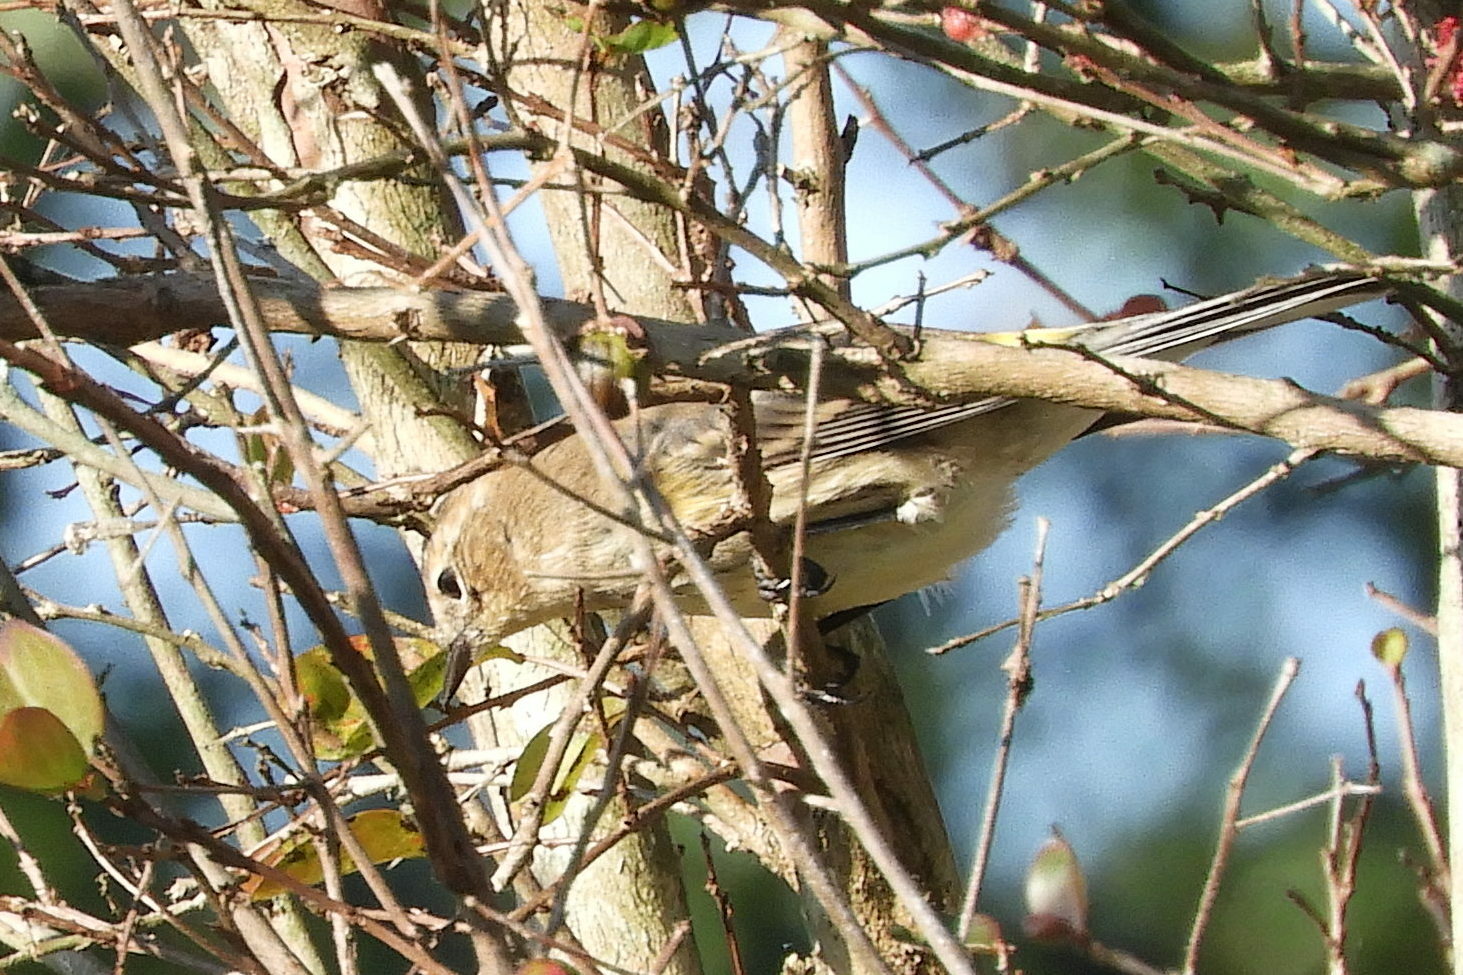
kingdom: Animalia
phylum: Chordata
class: Aves
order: Passeriformes
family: Parulidae
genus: Setophaga
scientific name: Setophaga coronata
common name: Myrtle warbler
